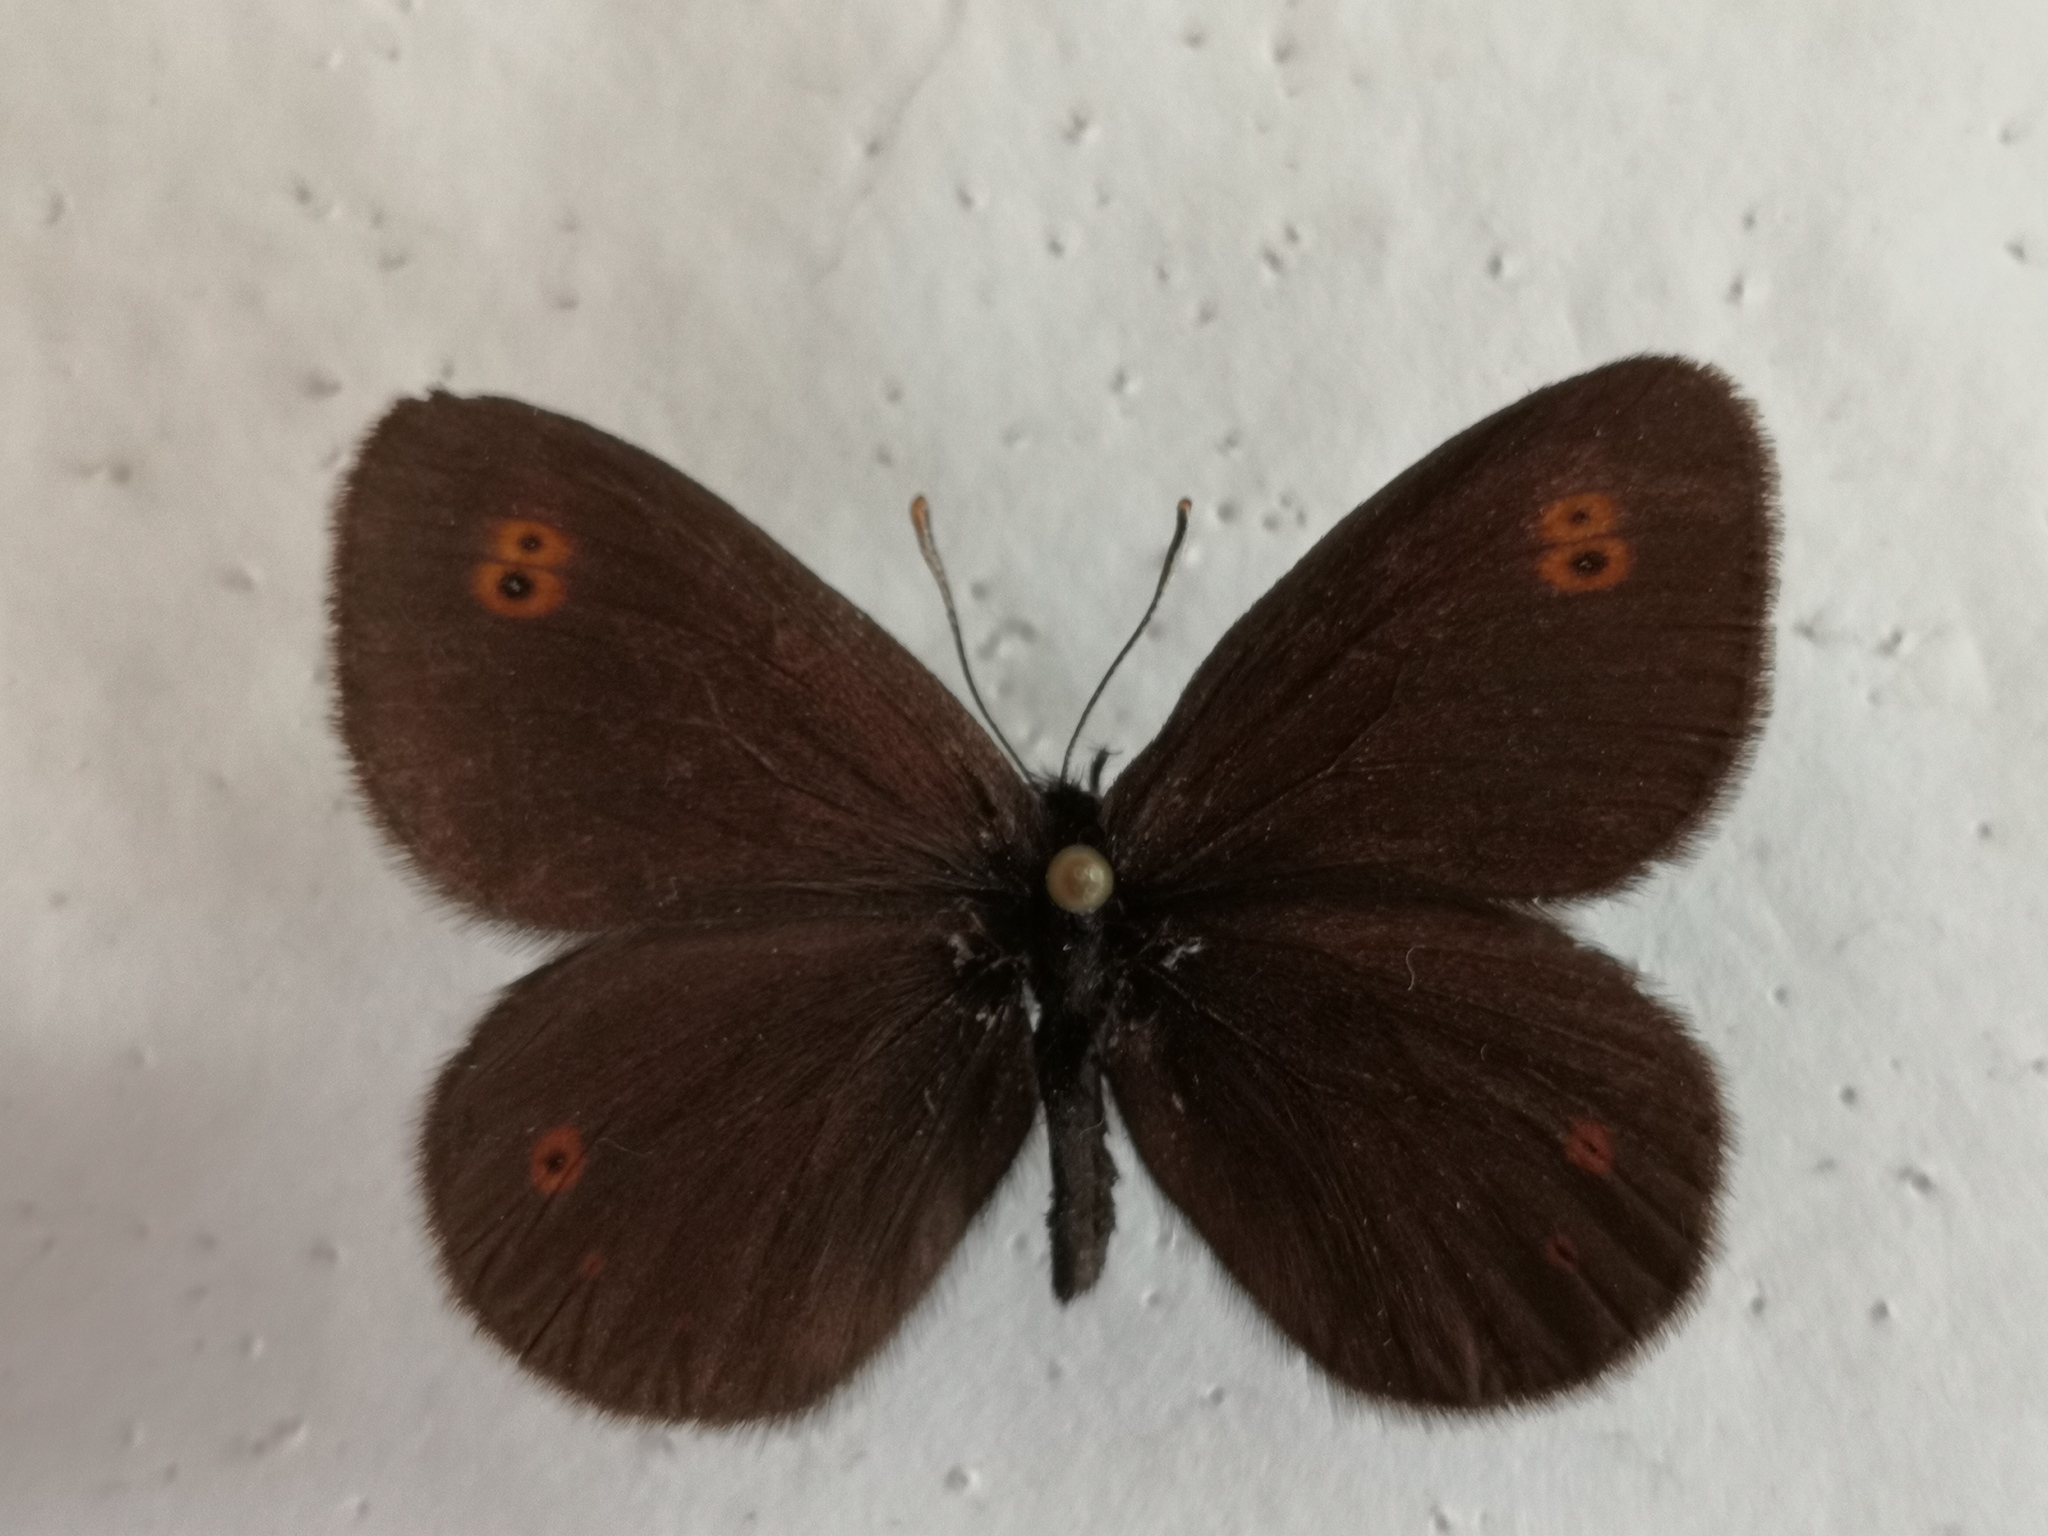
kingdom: Animalia
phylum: Arthropoda
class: Insecta
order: Lepidoptera
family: Nymphalidae
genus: Erebia
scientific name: Erebia medusa
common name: Woodland ringlet
